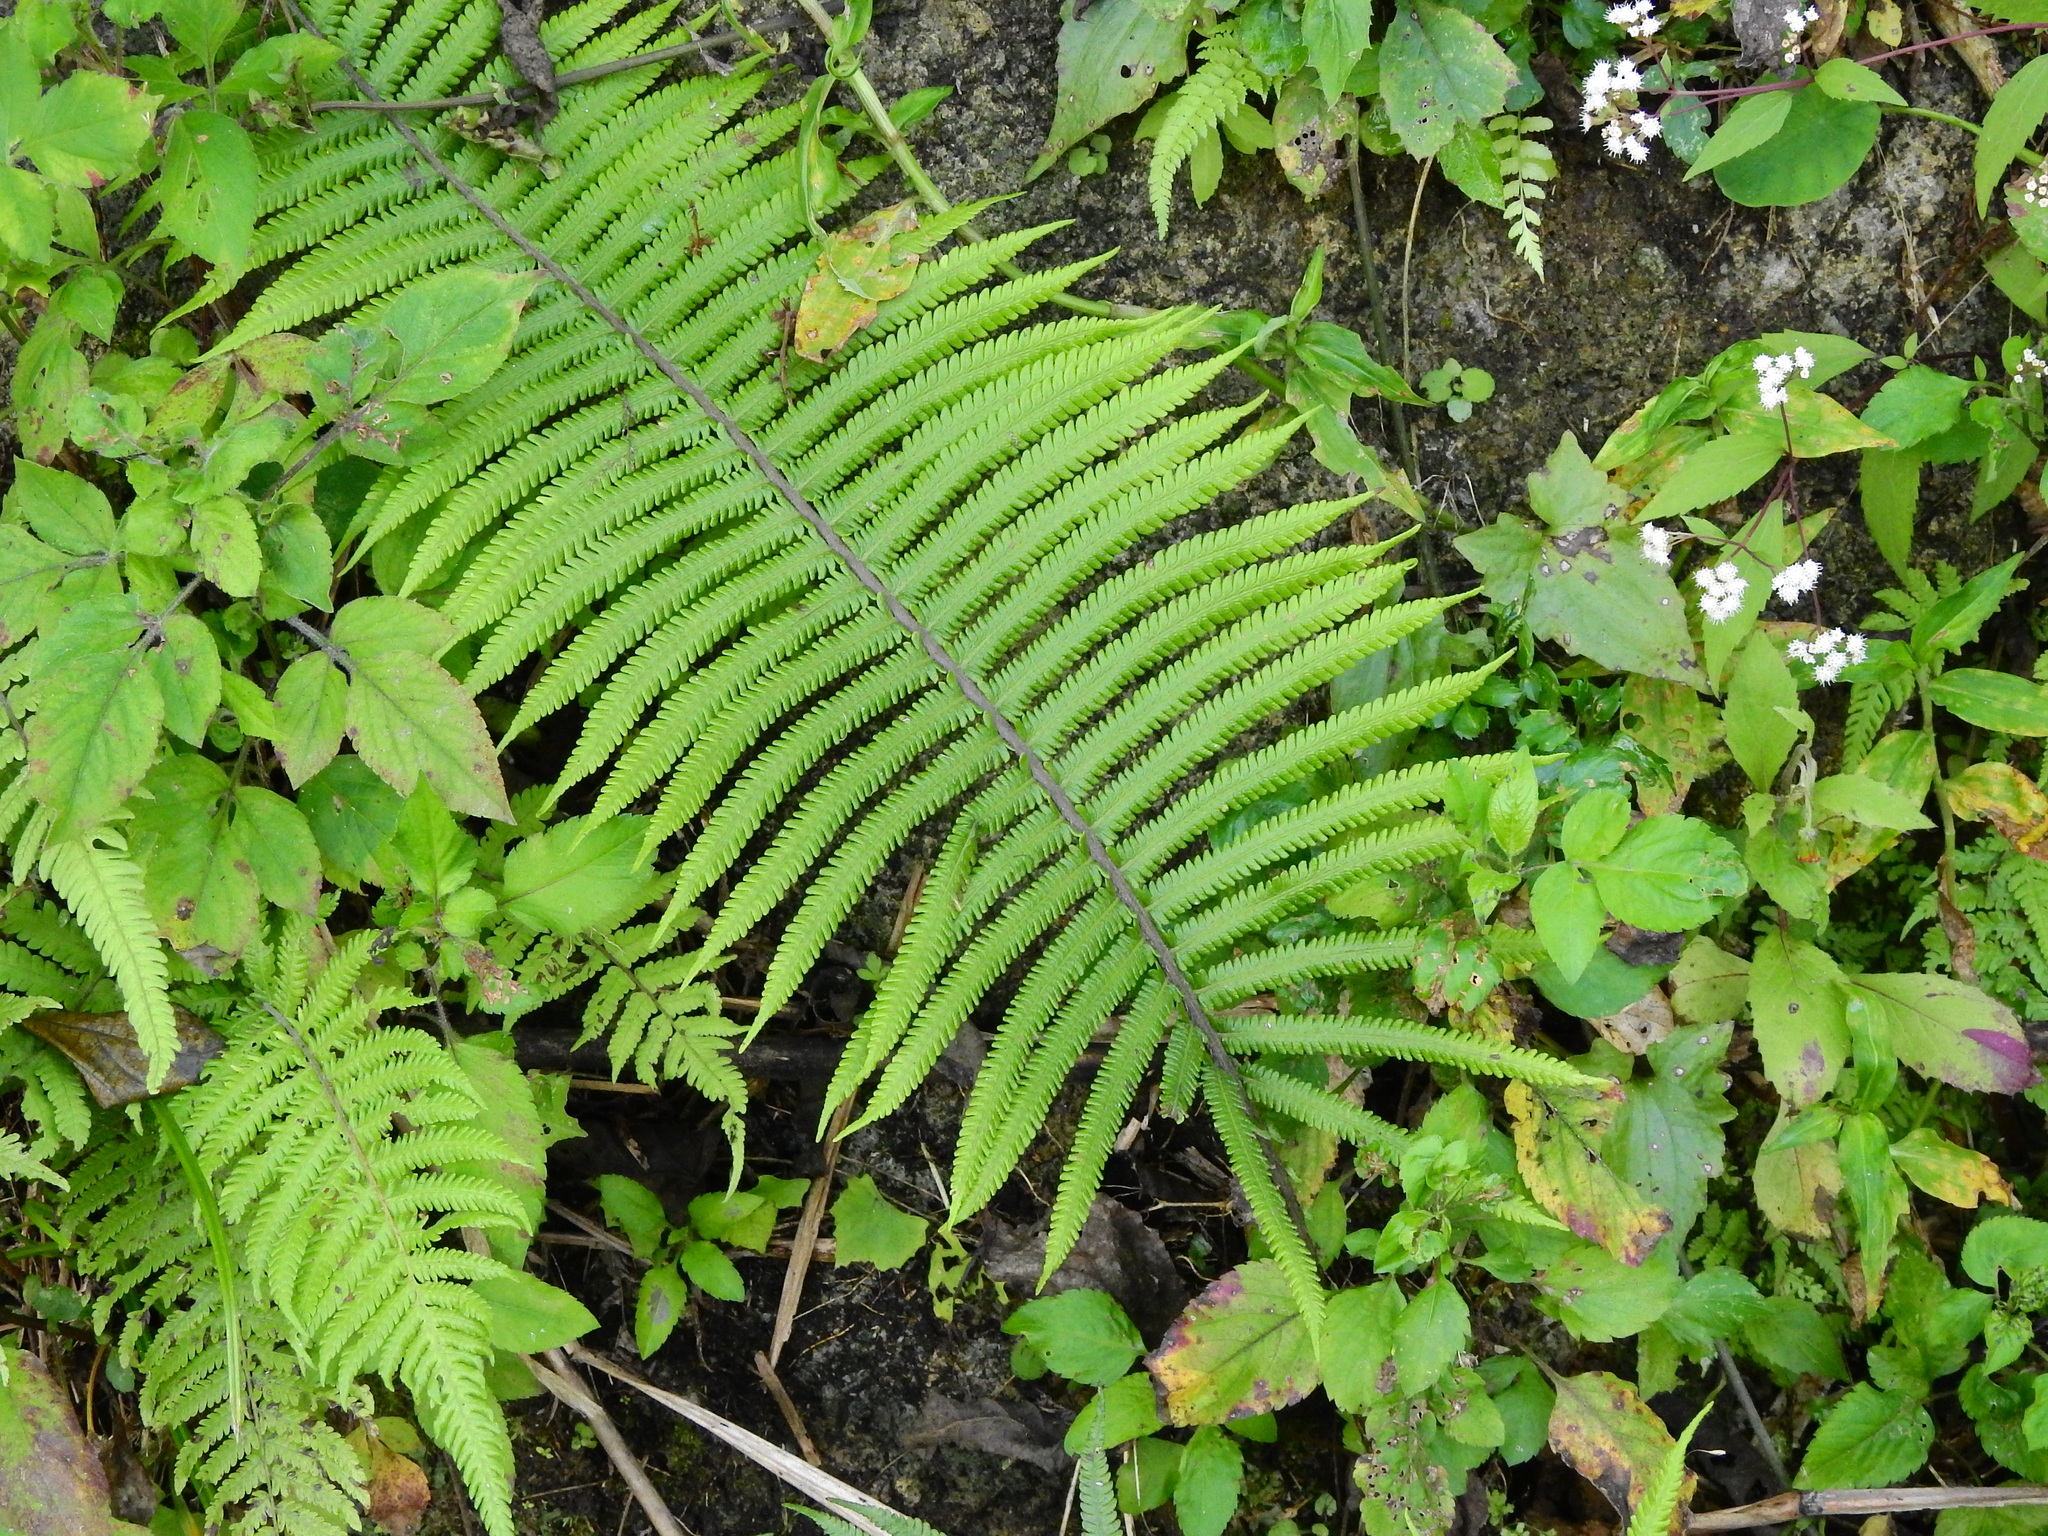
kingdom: Plantae
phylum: Tracheophyta
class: Polypodiopsida
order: Polypodiales
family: Thelypteridaceae
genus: Sphaerostephanos
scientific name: Sphaerostephanos taiwanensis
